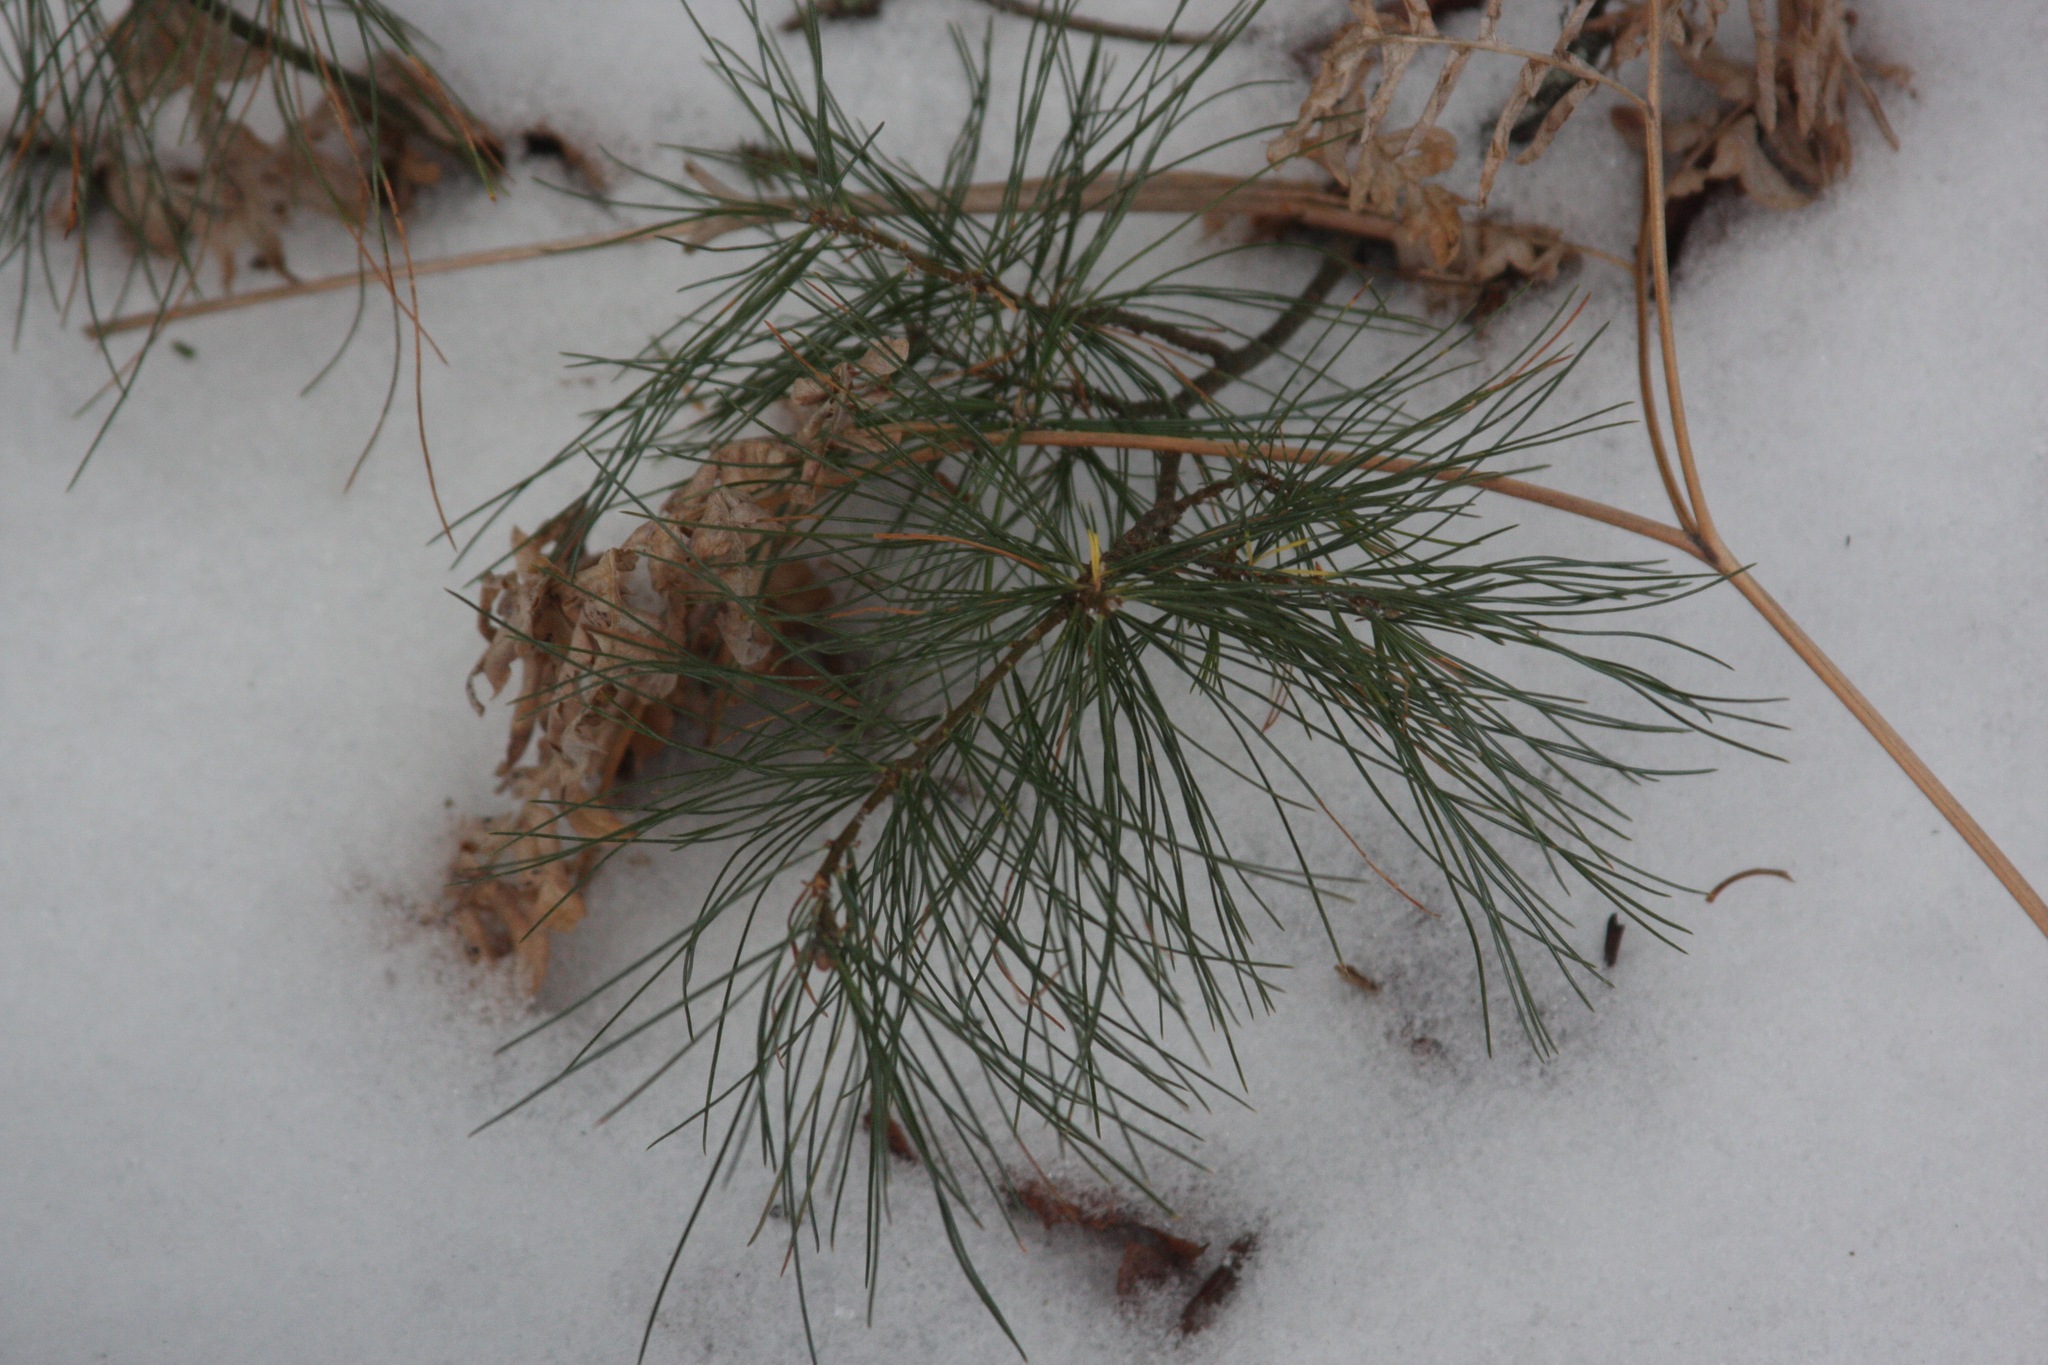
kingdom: Plantae
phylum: Tracheophyta
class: Pinopsida
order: Pinales
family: Pinaceae
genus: Pinus
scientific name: Pinus strobus
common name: Weymouth pine
